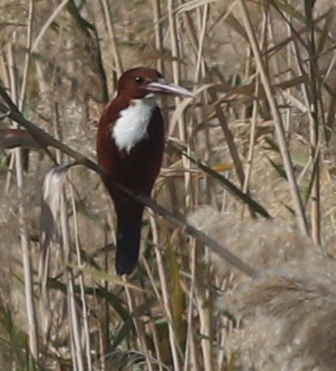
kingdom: Animalia
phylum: Chordata
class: Aves
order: Coraciiformes
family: Alcedinidae
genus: Halcyon
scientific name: Halcyon smyrnensis
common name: White-throated kingfisher
